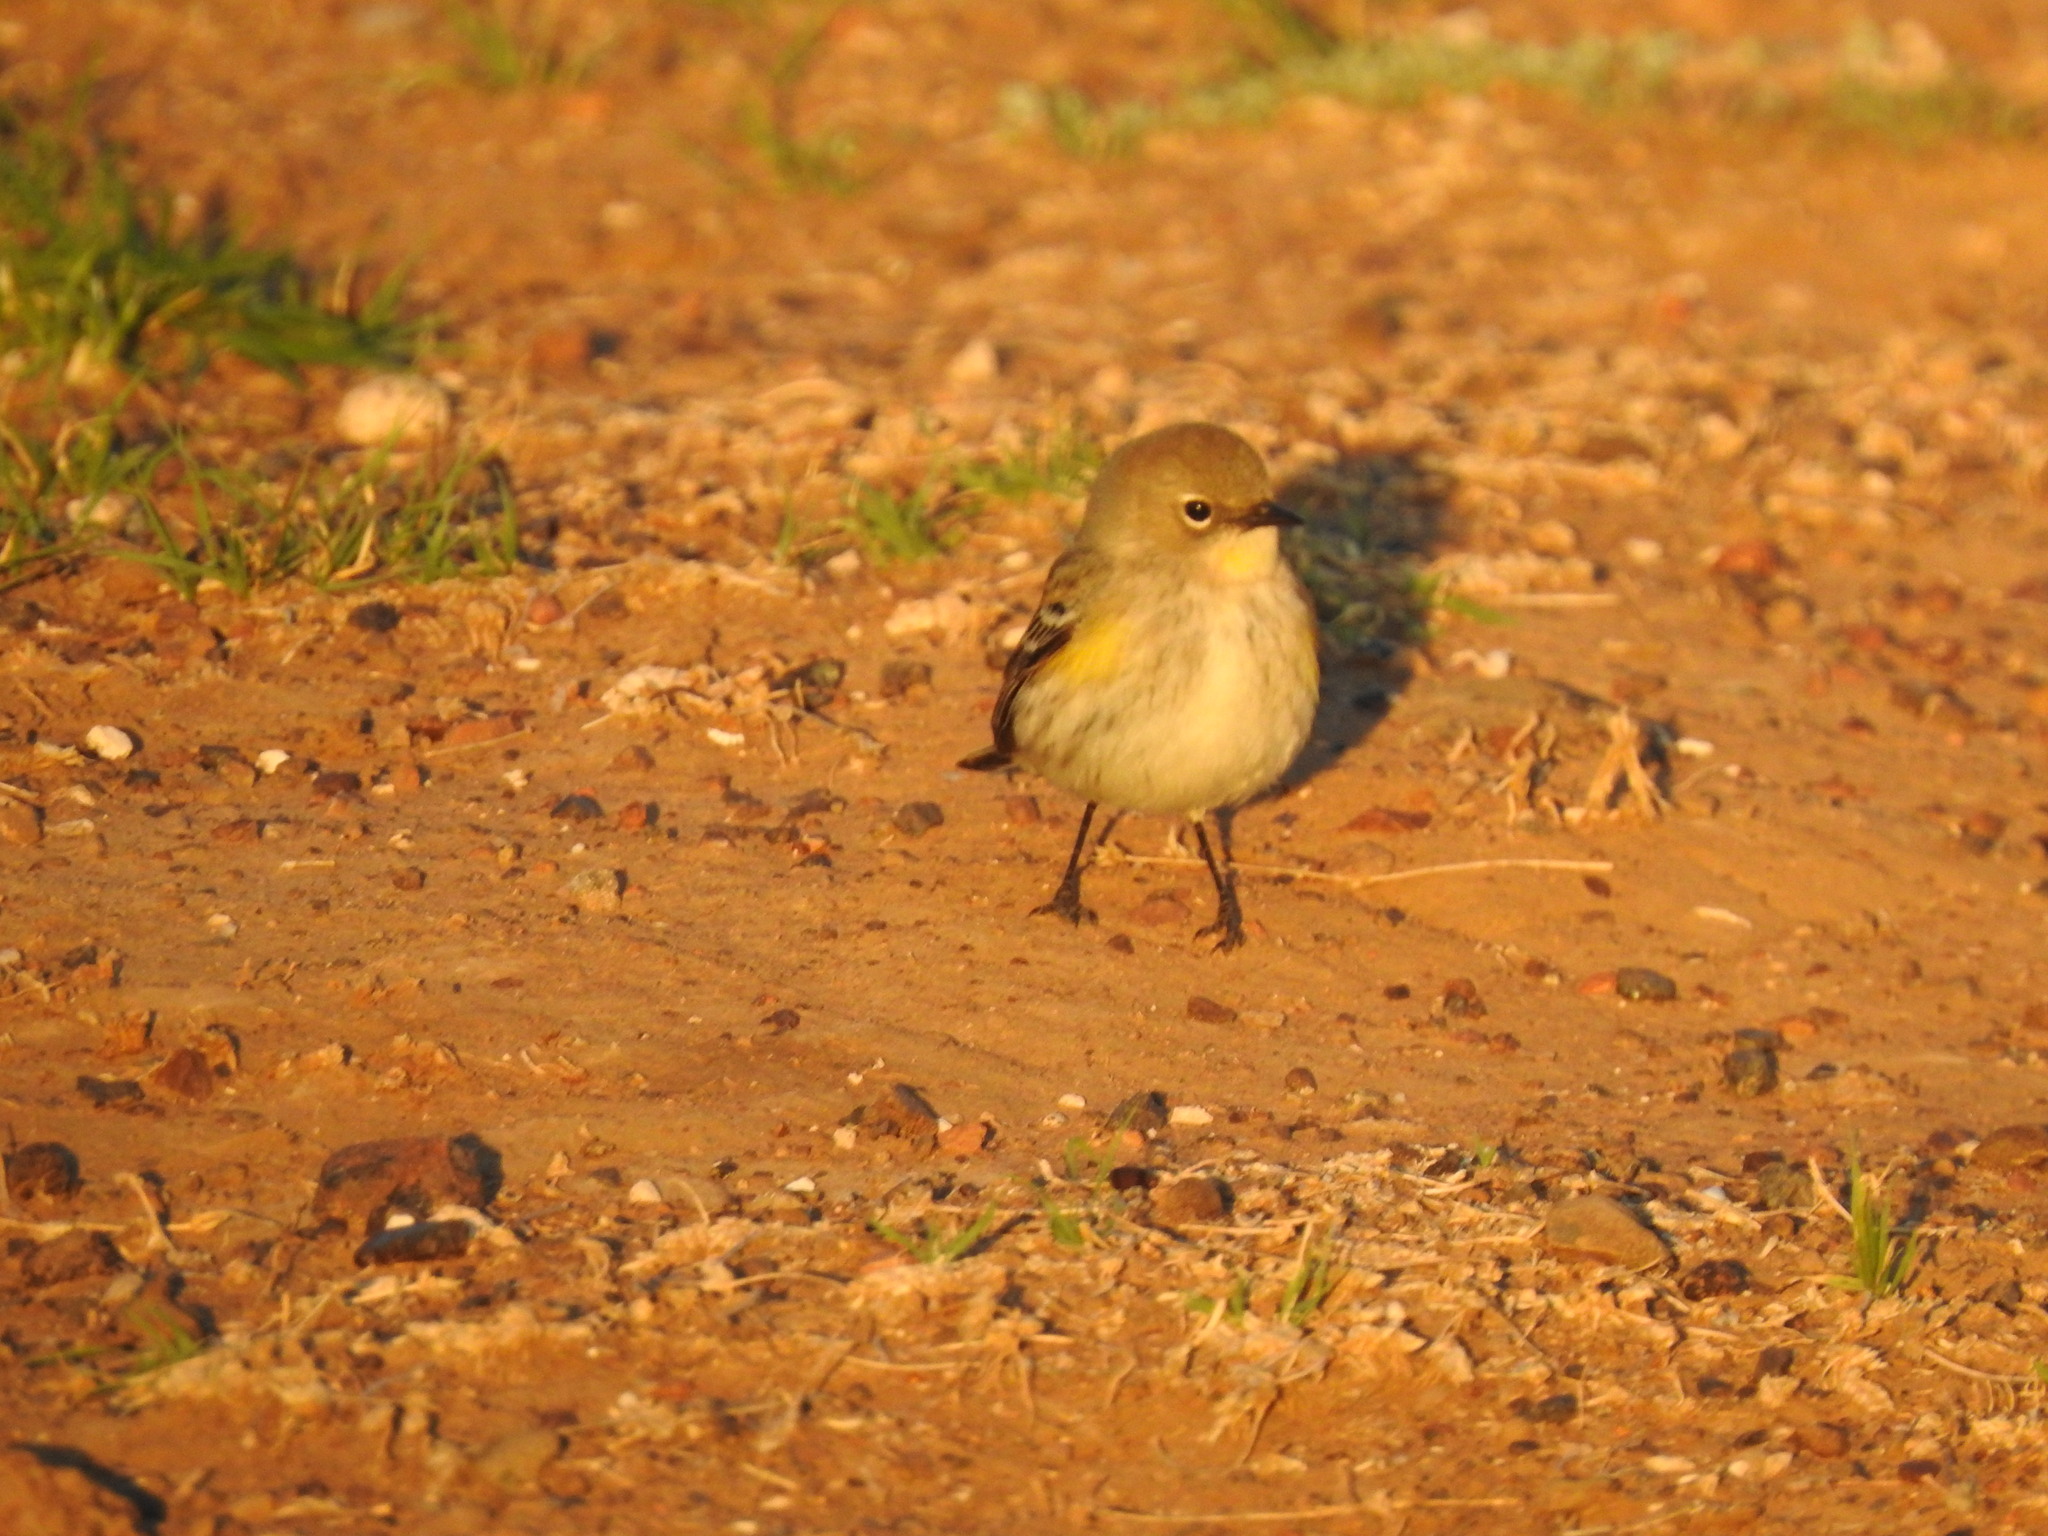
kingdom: Animalia
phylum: Chordata
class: Aves
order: Passeriformes
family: Parulidae
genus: Setophaga
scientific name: Setophaga coronata
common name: Myrtle warbler
